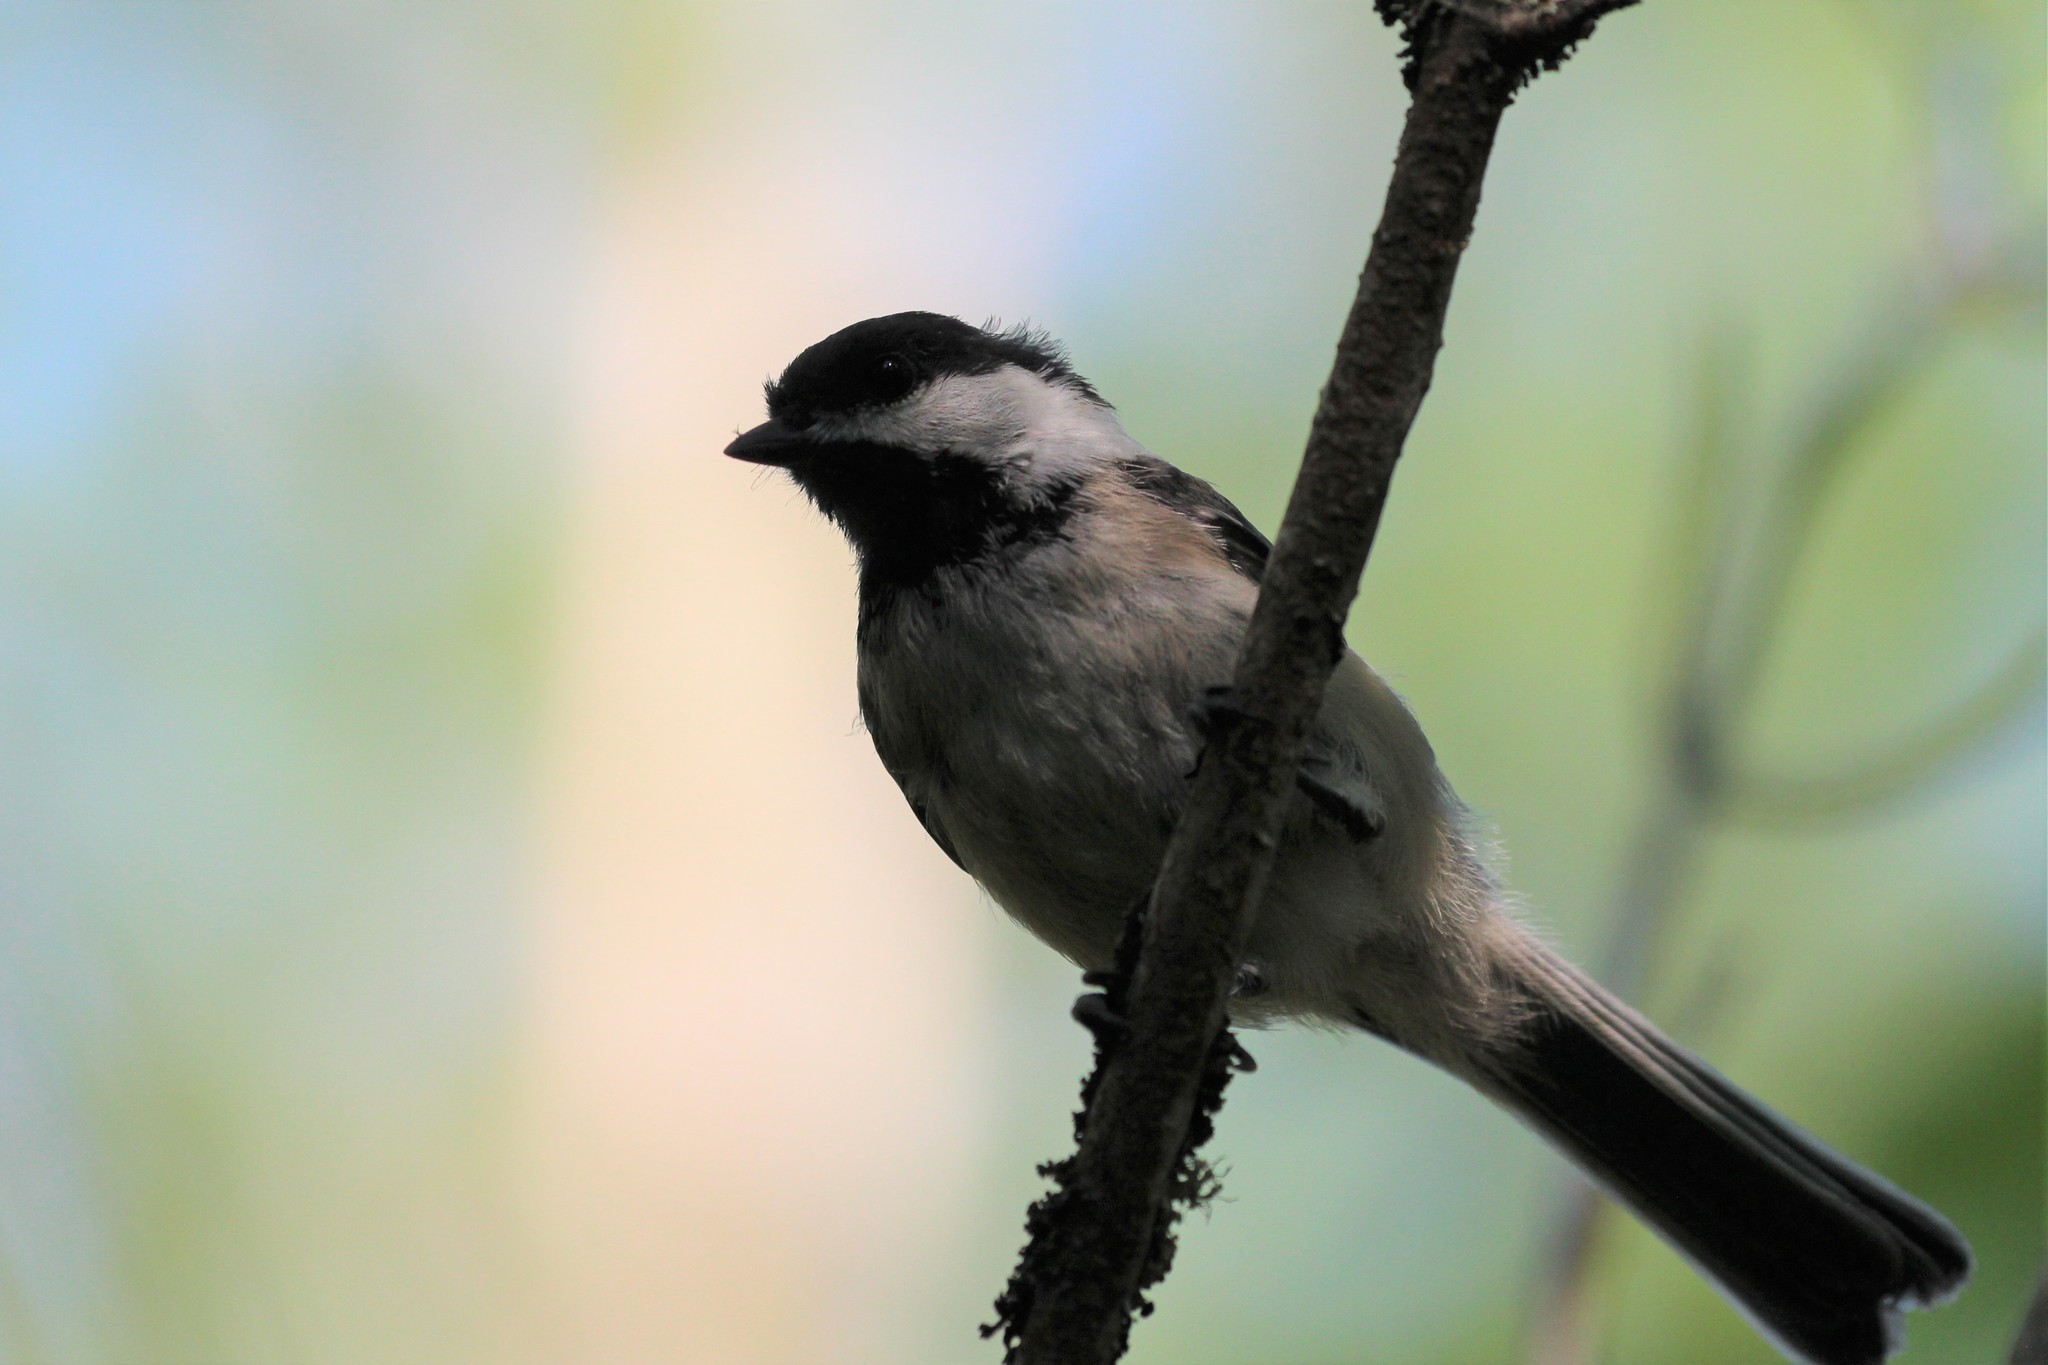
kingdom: Animalia
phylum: Chordata
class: Aves
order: Passeriformes
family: Paridae
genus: Poecile
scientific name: Poecile atricapillus
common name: Black-capped chickadee
